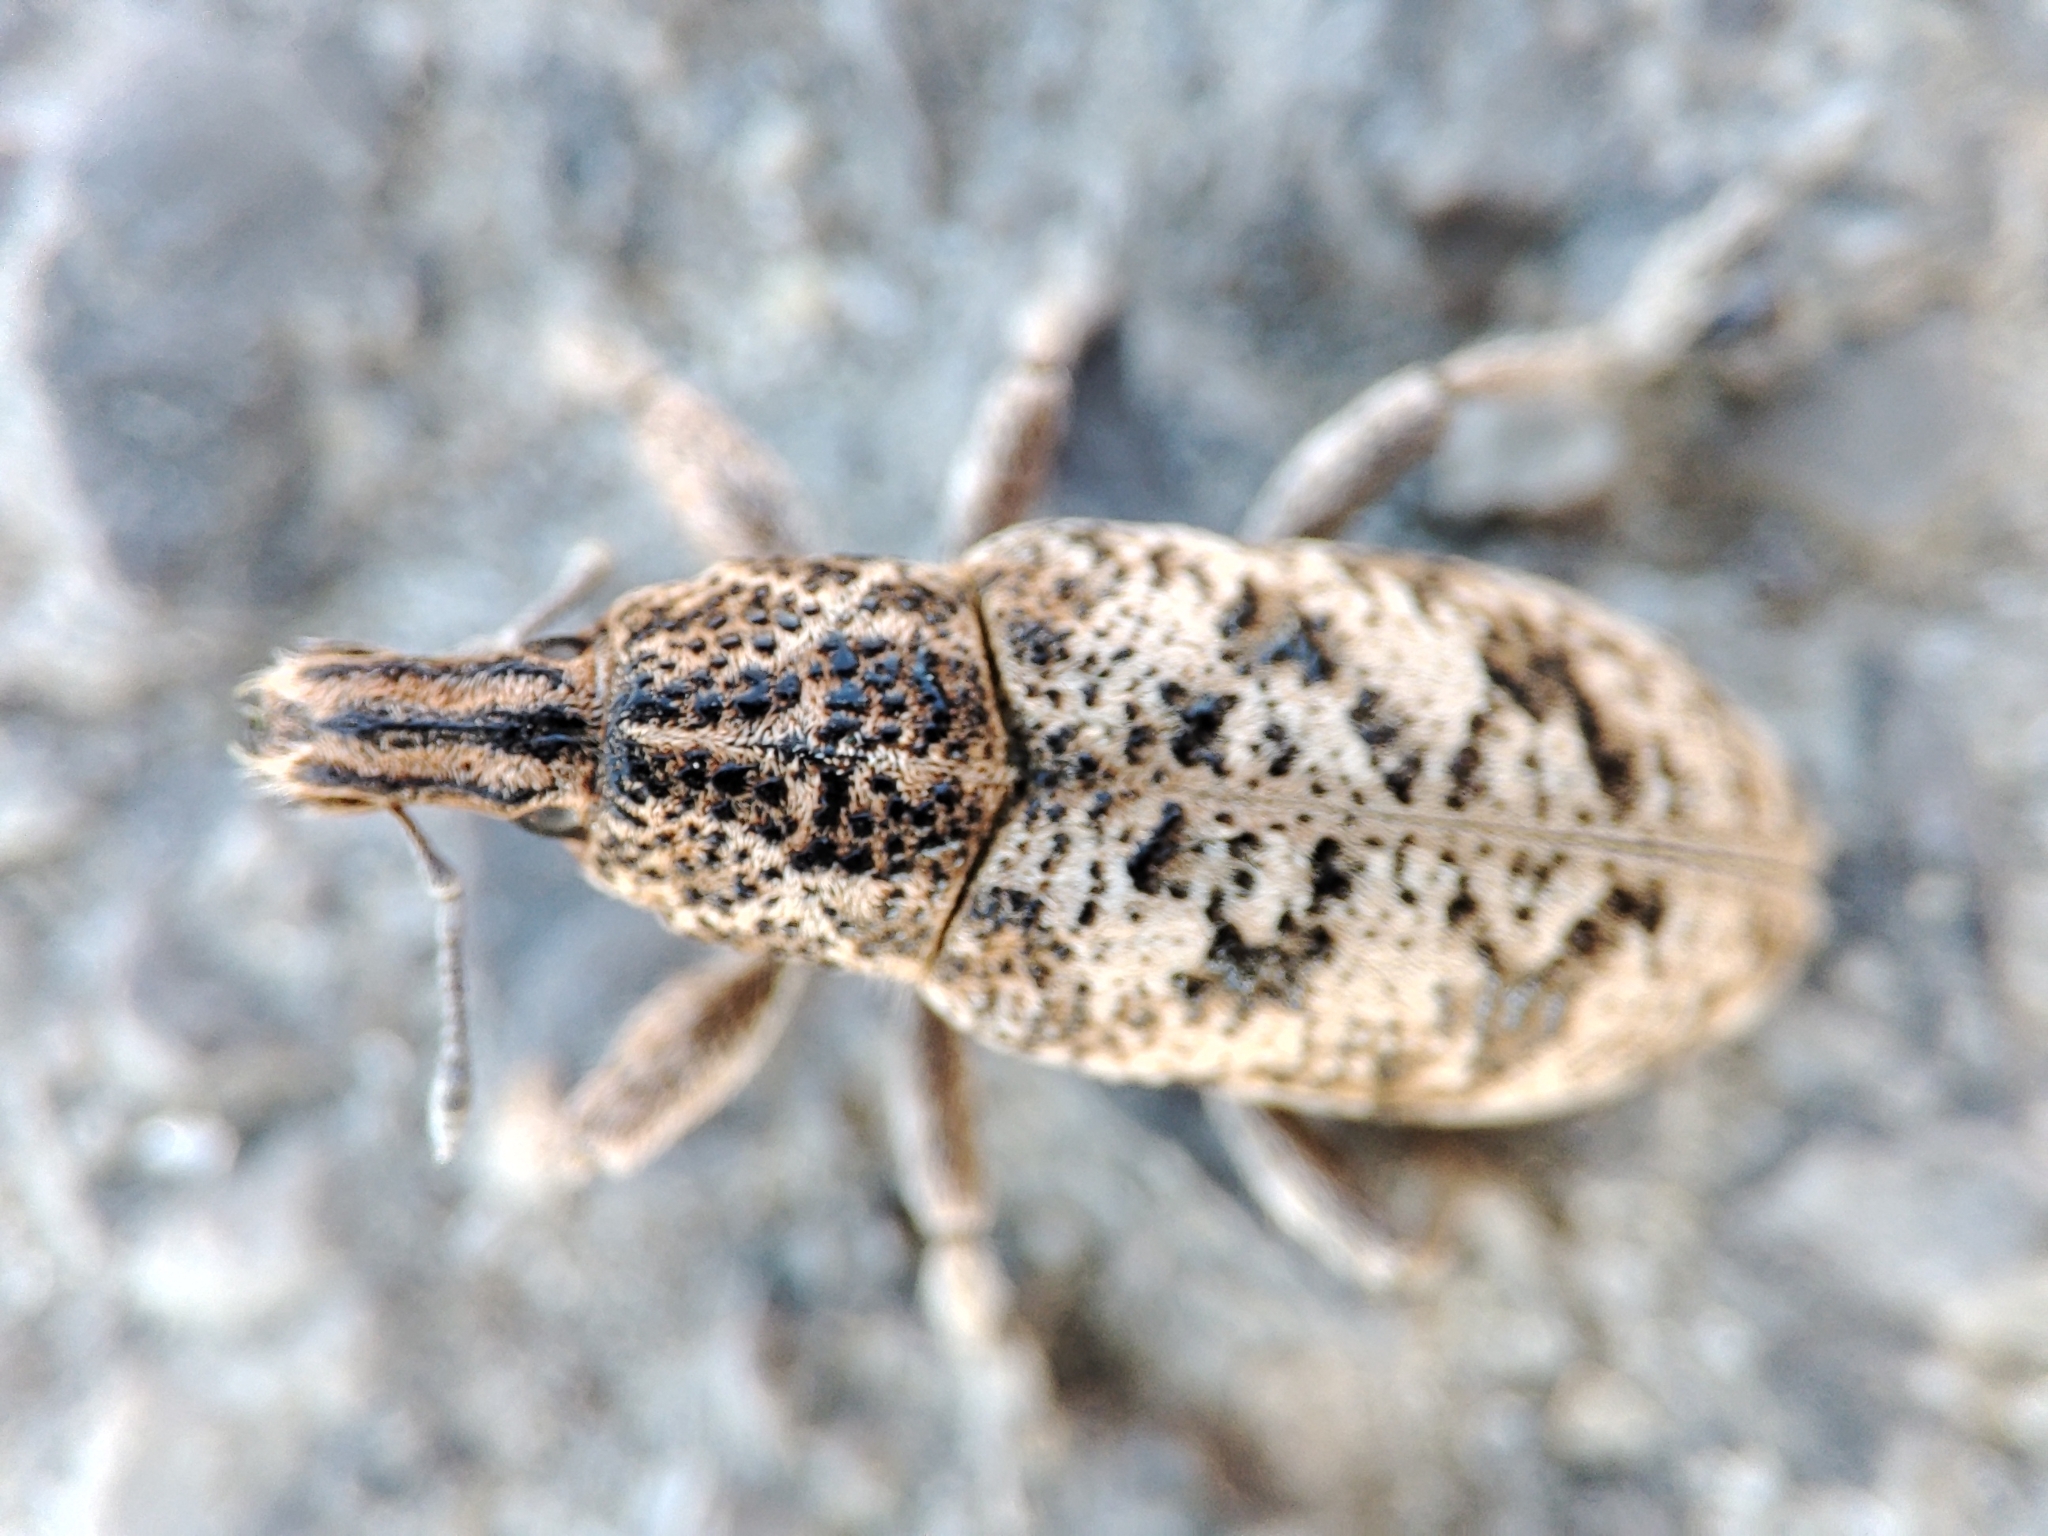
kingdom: Animalia
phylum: Arthropoda
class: Insecta
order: Coleoptera
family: Curculionidae
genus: Cyphocleonus
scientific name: Cyphocleonus dealbatus
